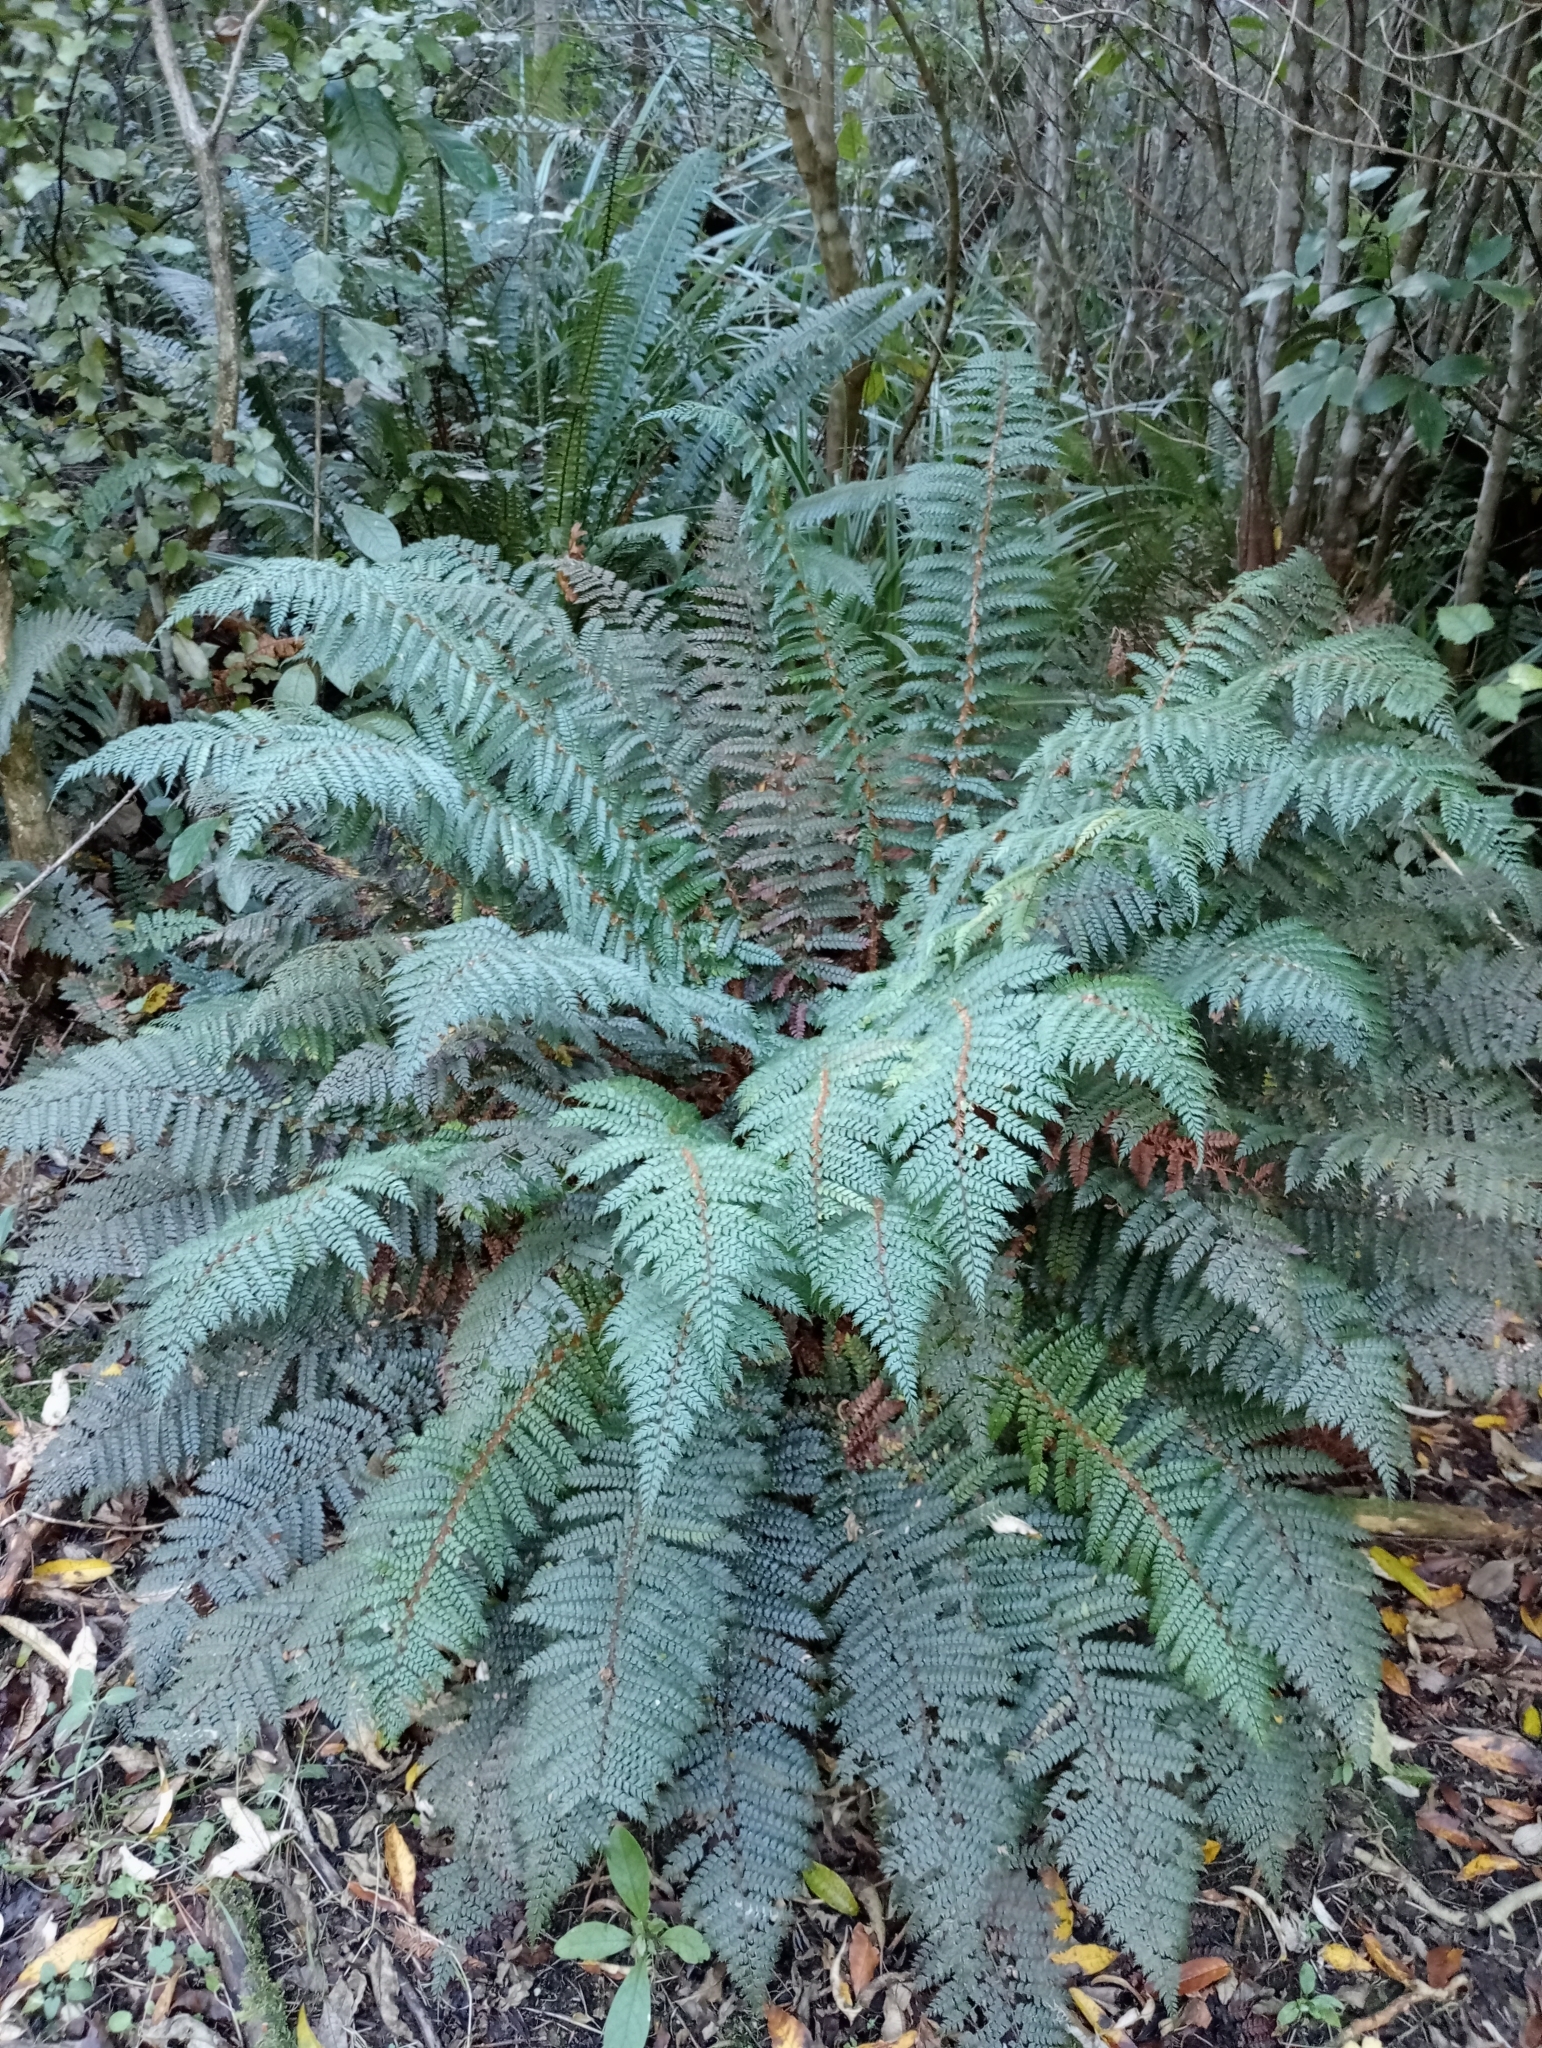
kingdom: Plantae
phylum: Tracheophyta
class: Polypodiopsida
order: Polypodiales
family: Dryopteridaceae
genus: Polystichum
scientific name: Polystichum vestitum
